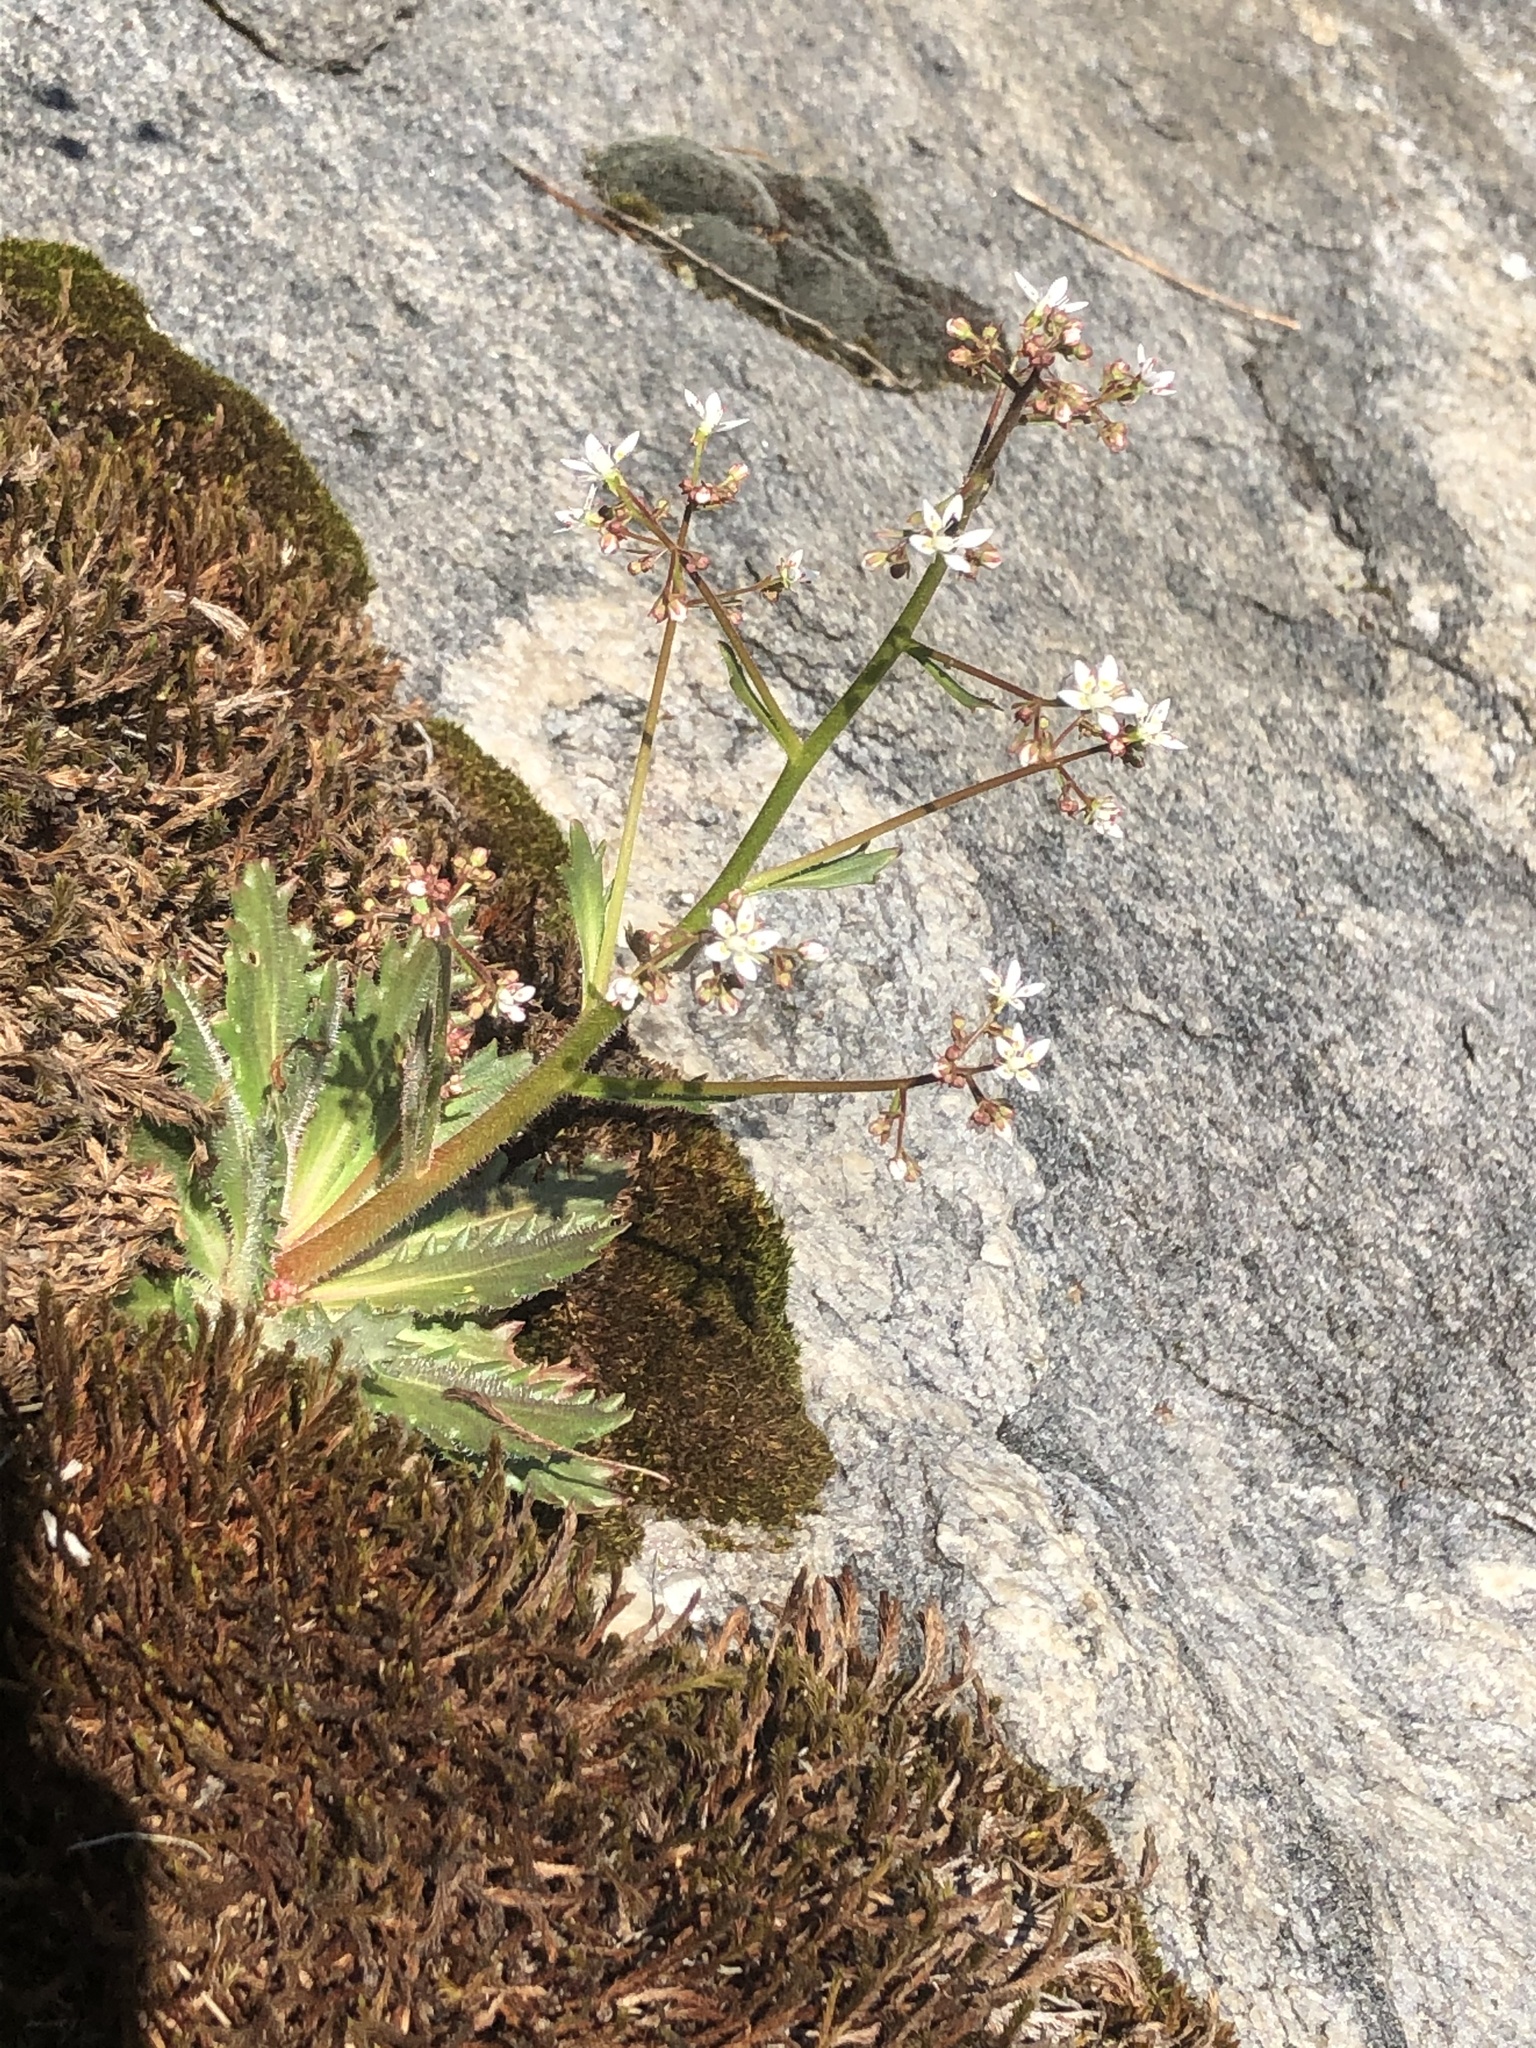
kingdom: Plantae
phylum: Tracheophyta
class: Magnoliopsida
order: Saxifragales
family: Saxifragaceae
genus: Micranthes
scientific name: Micranthes petiolaris
